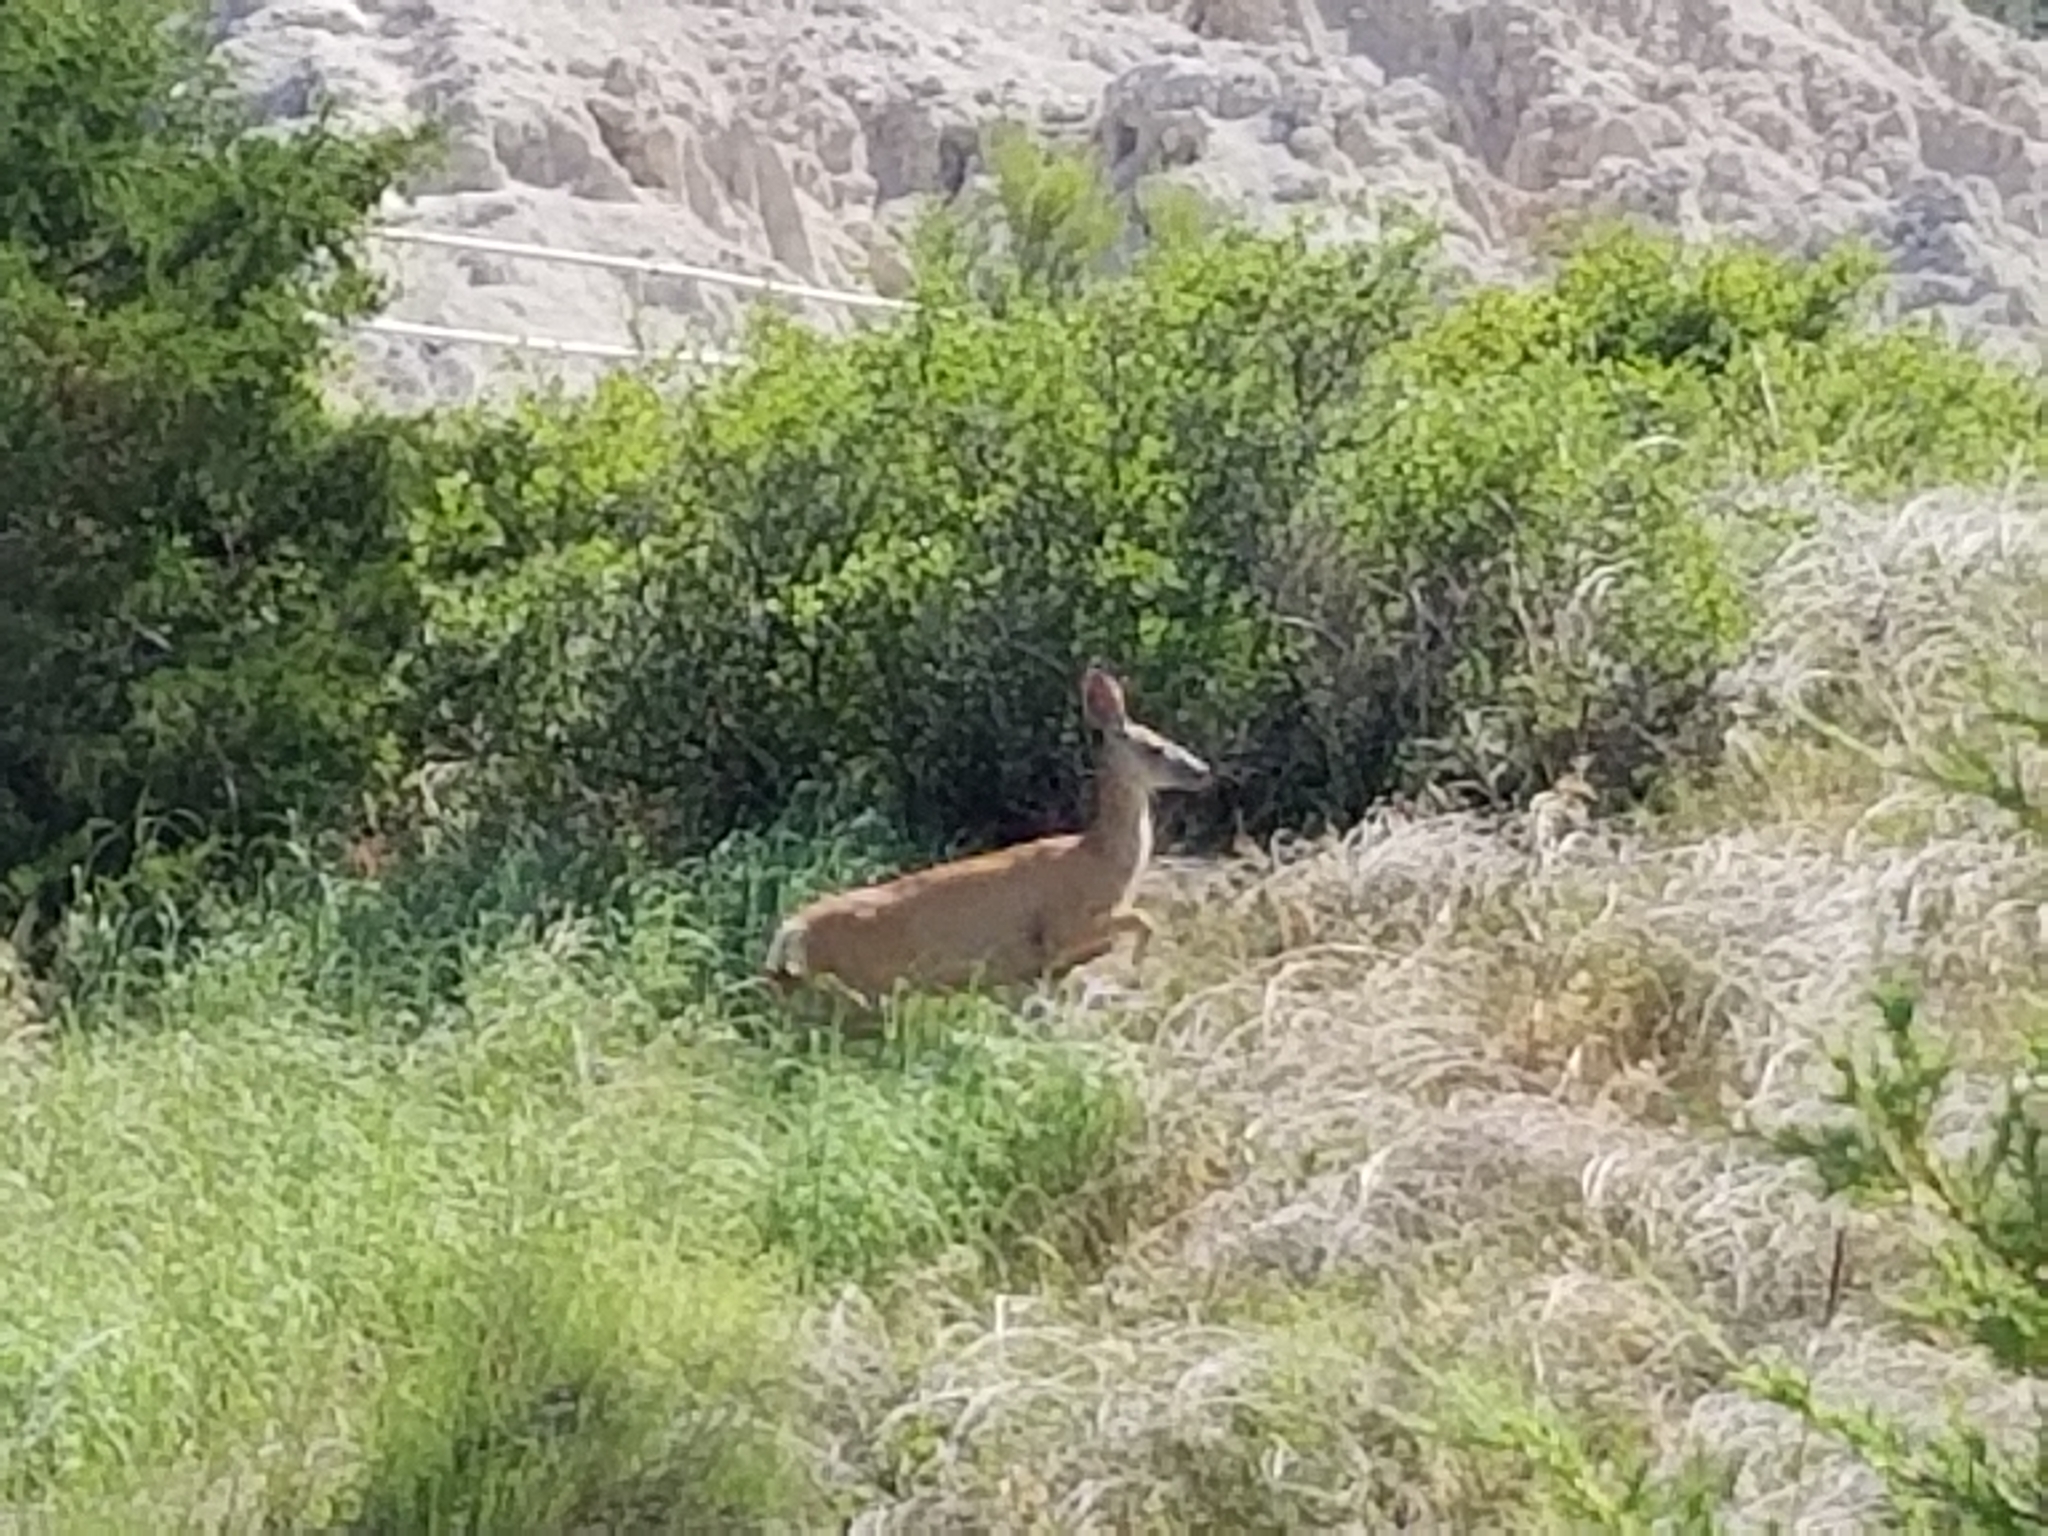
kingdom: Animalia
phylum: Chordata
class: Mammalia
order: Artiodactyla
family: Cervidae
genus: Odocoileus
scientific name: Odocoileus hemionus
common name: Mule deer
